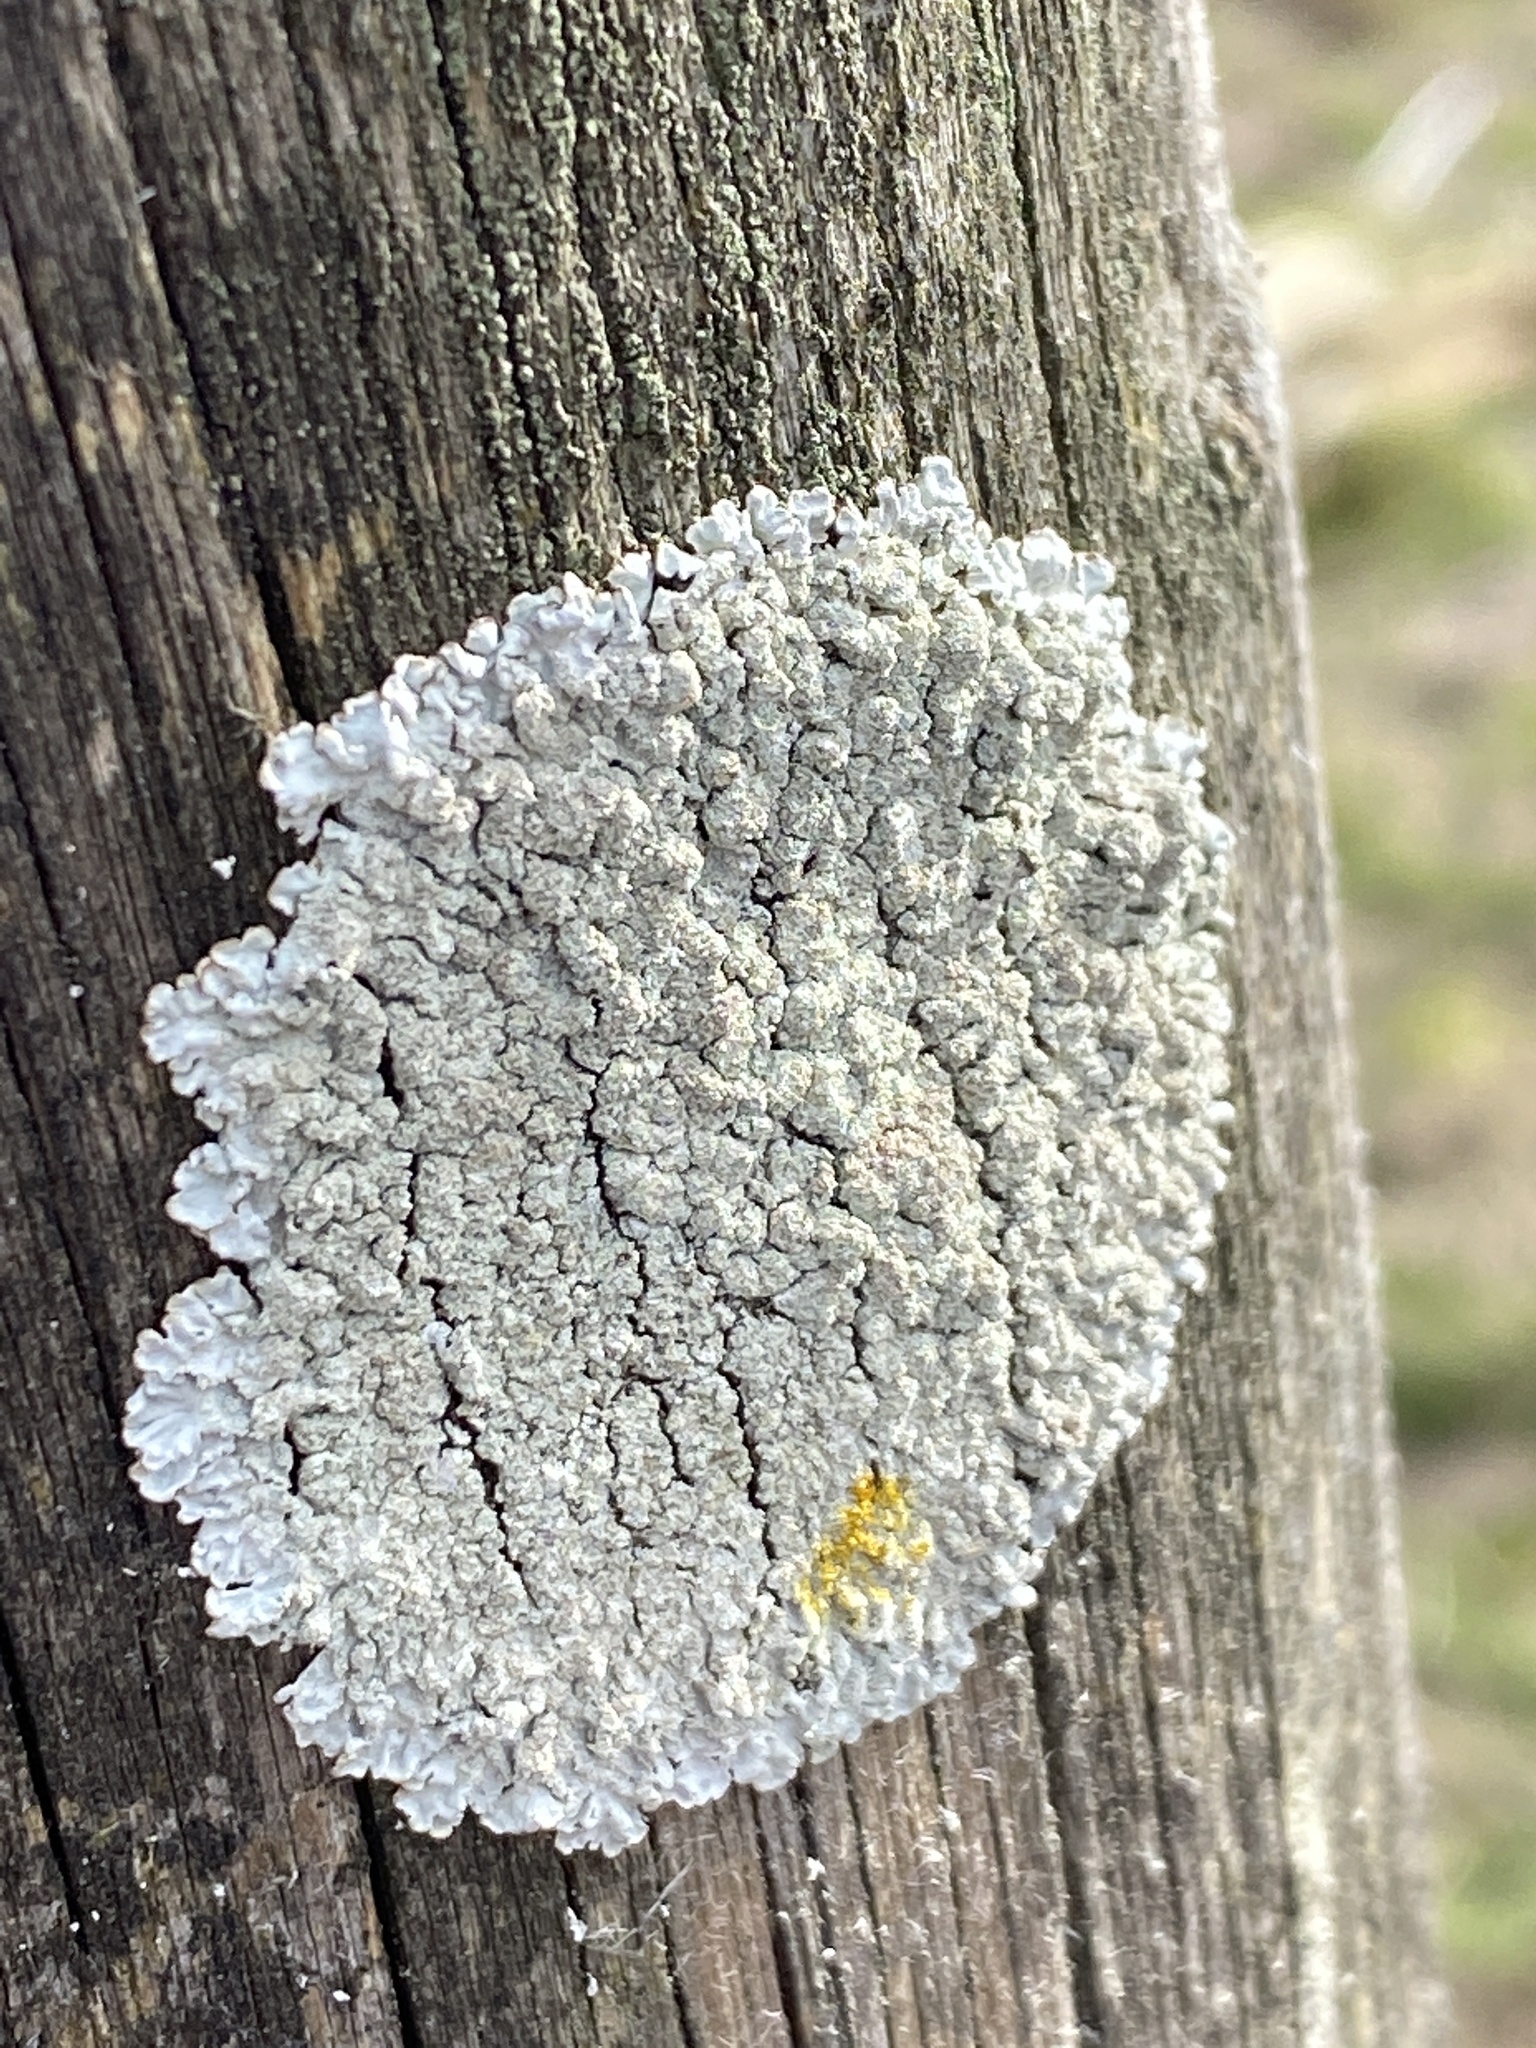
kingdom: Fungi
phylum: Ascomycota
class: Lecanoromycetes
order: Lecanorales
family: Parmeliaceae
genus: Imshaugia
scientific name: Imshaugia aleurites
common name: Salted starburst lichen
